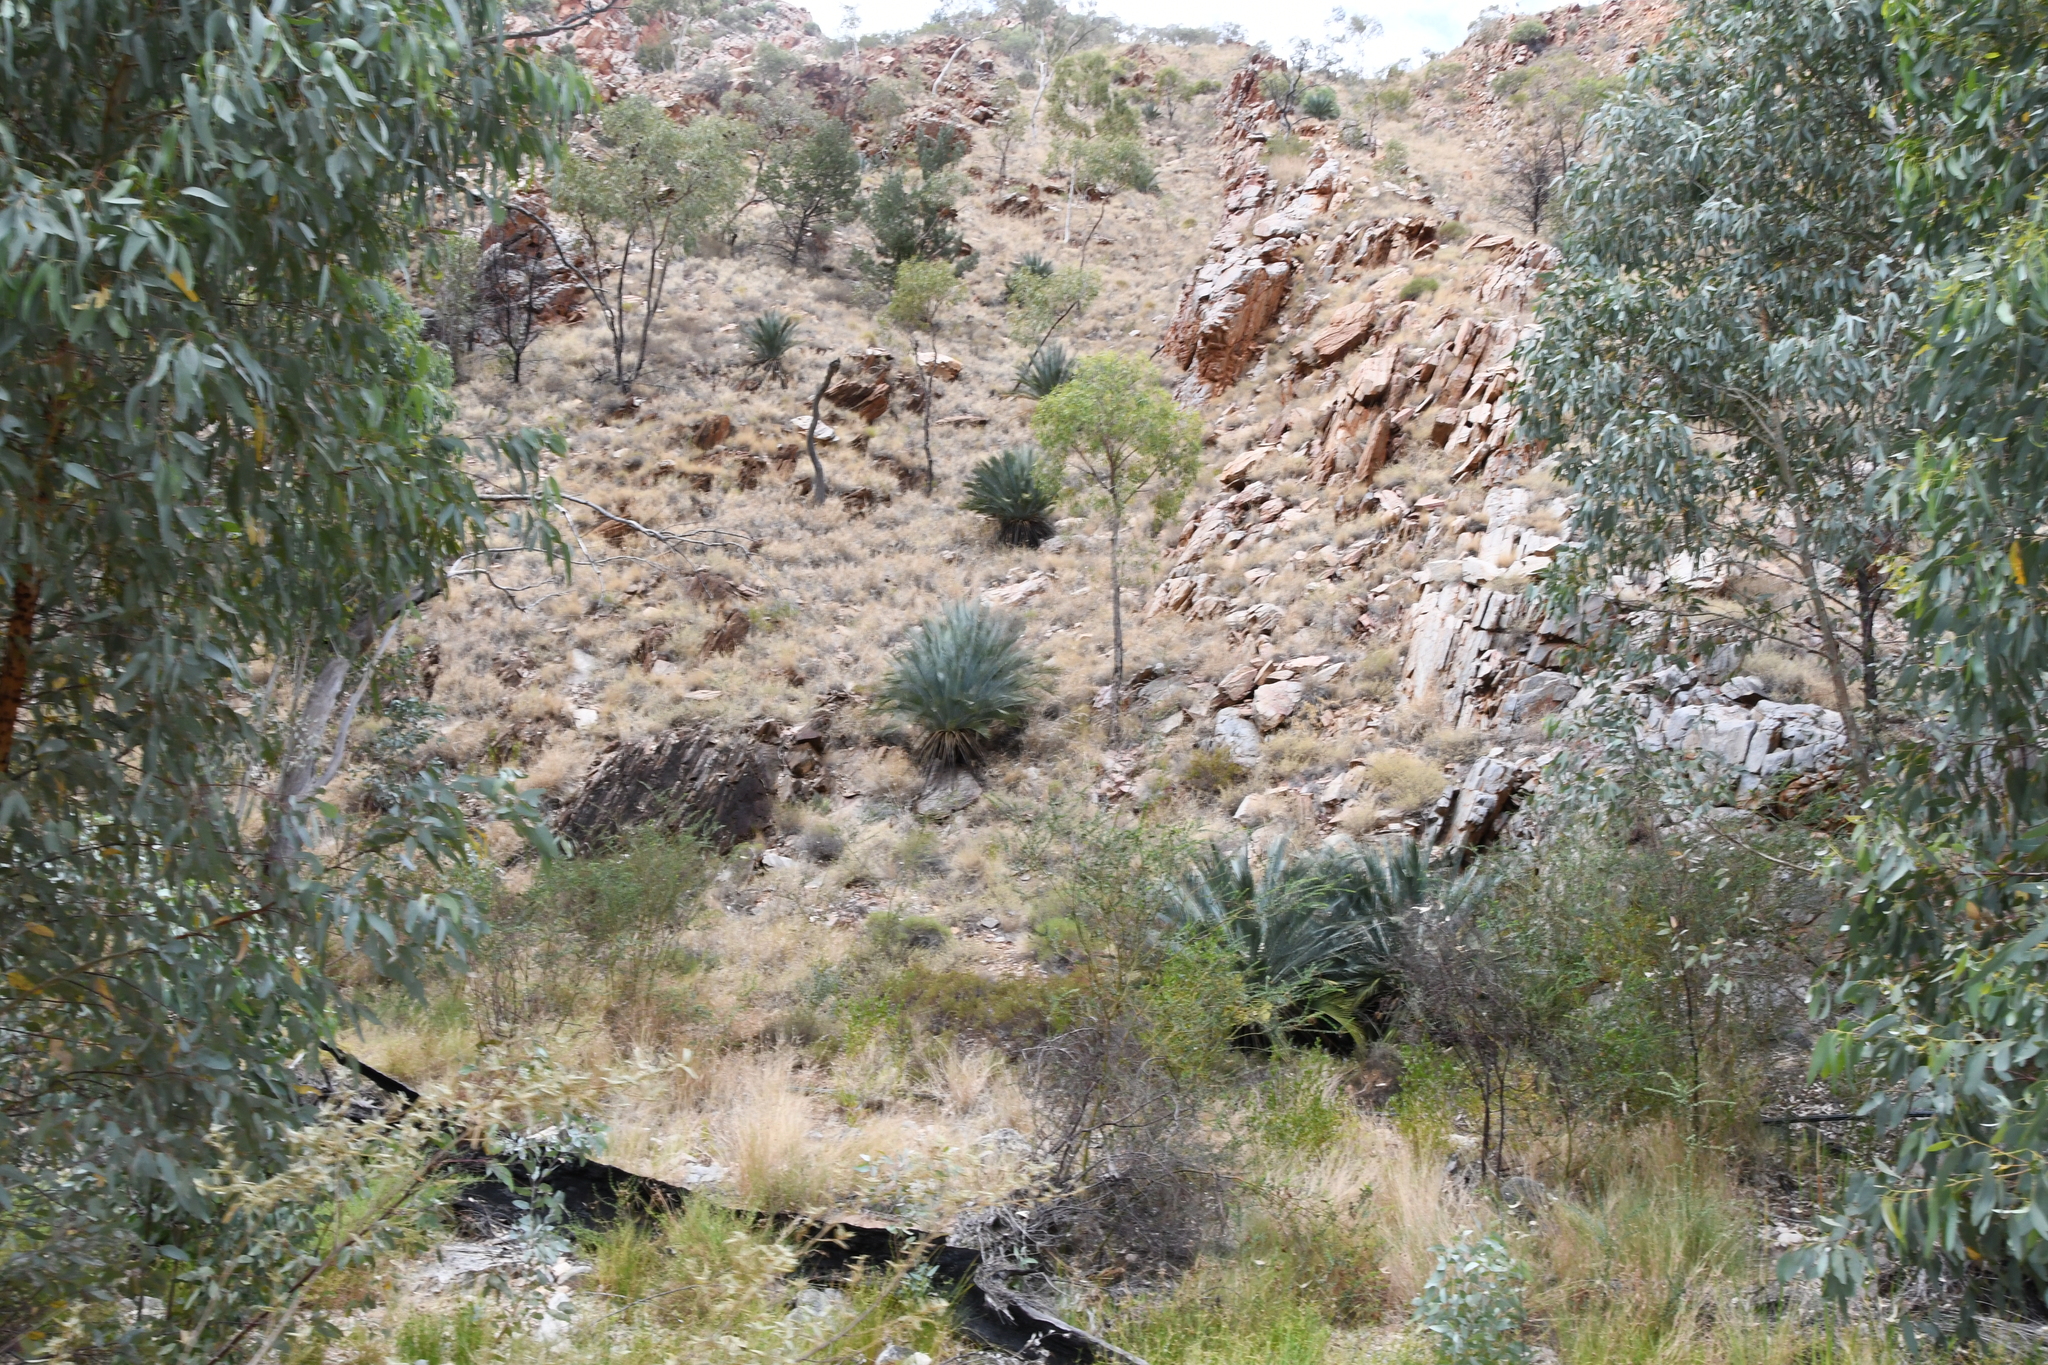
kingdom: Plantae
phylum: Tracheophyta
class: Cycadopsida
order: Cycadales
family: Zamiaceae
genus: Macrozamia
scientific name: Macrozamia macdonnellii
